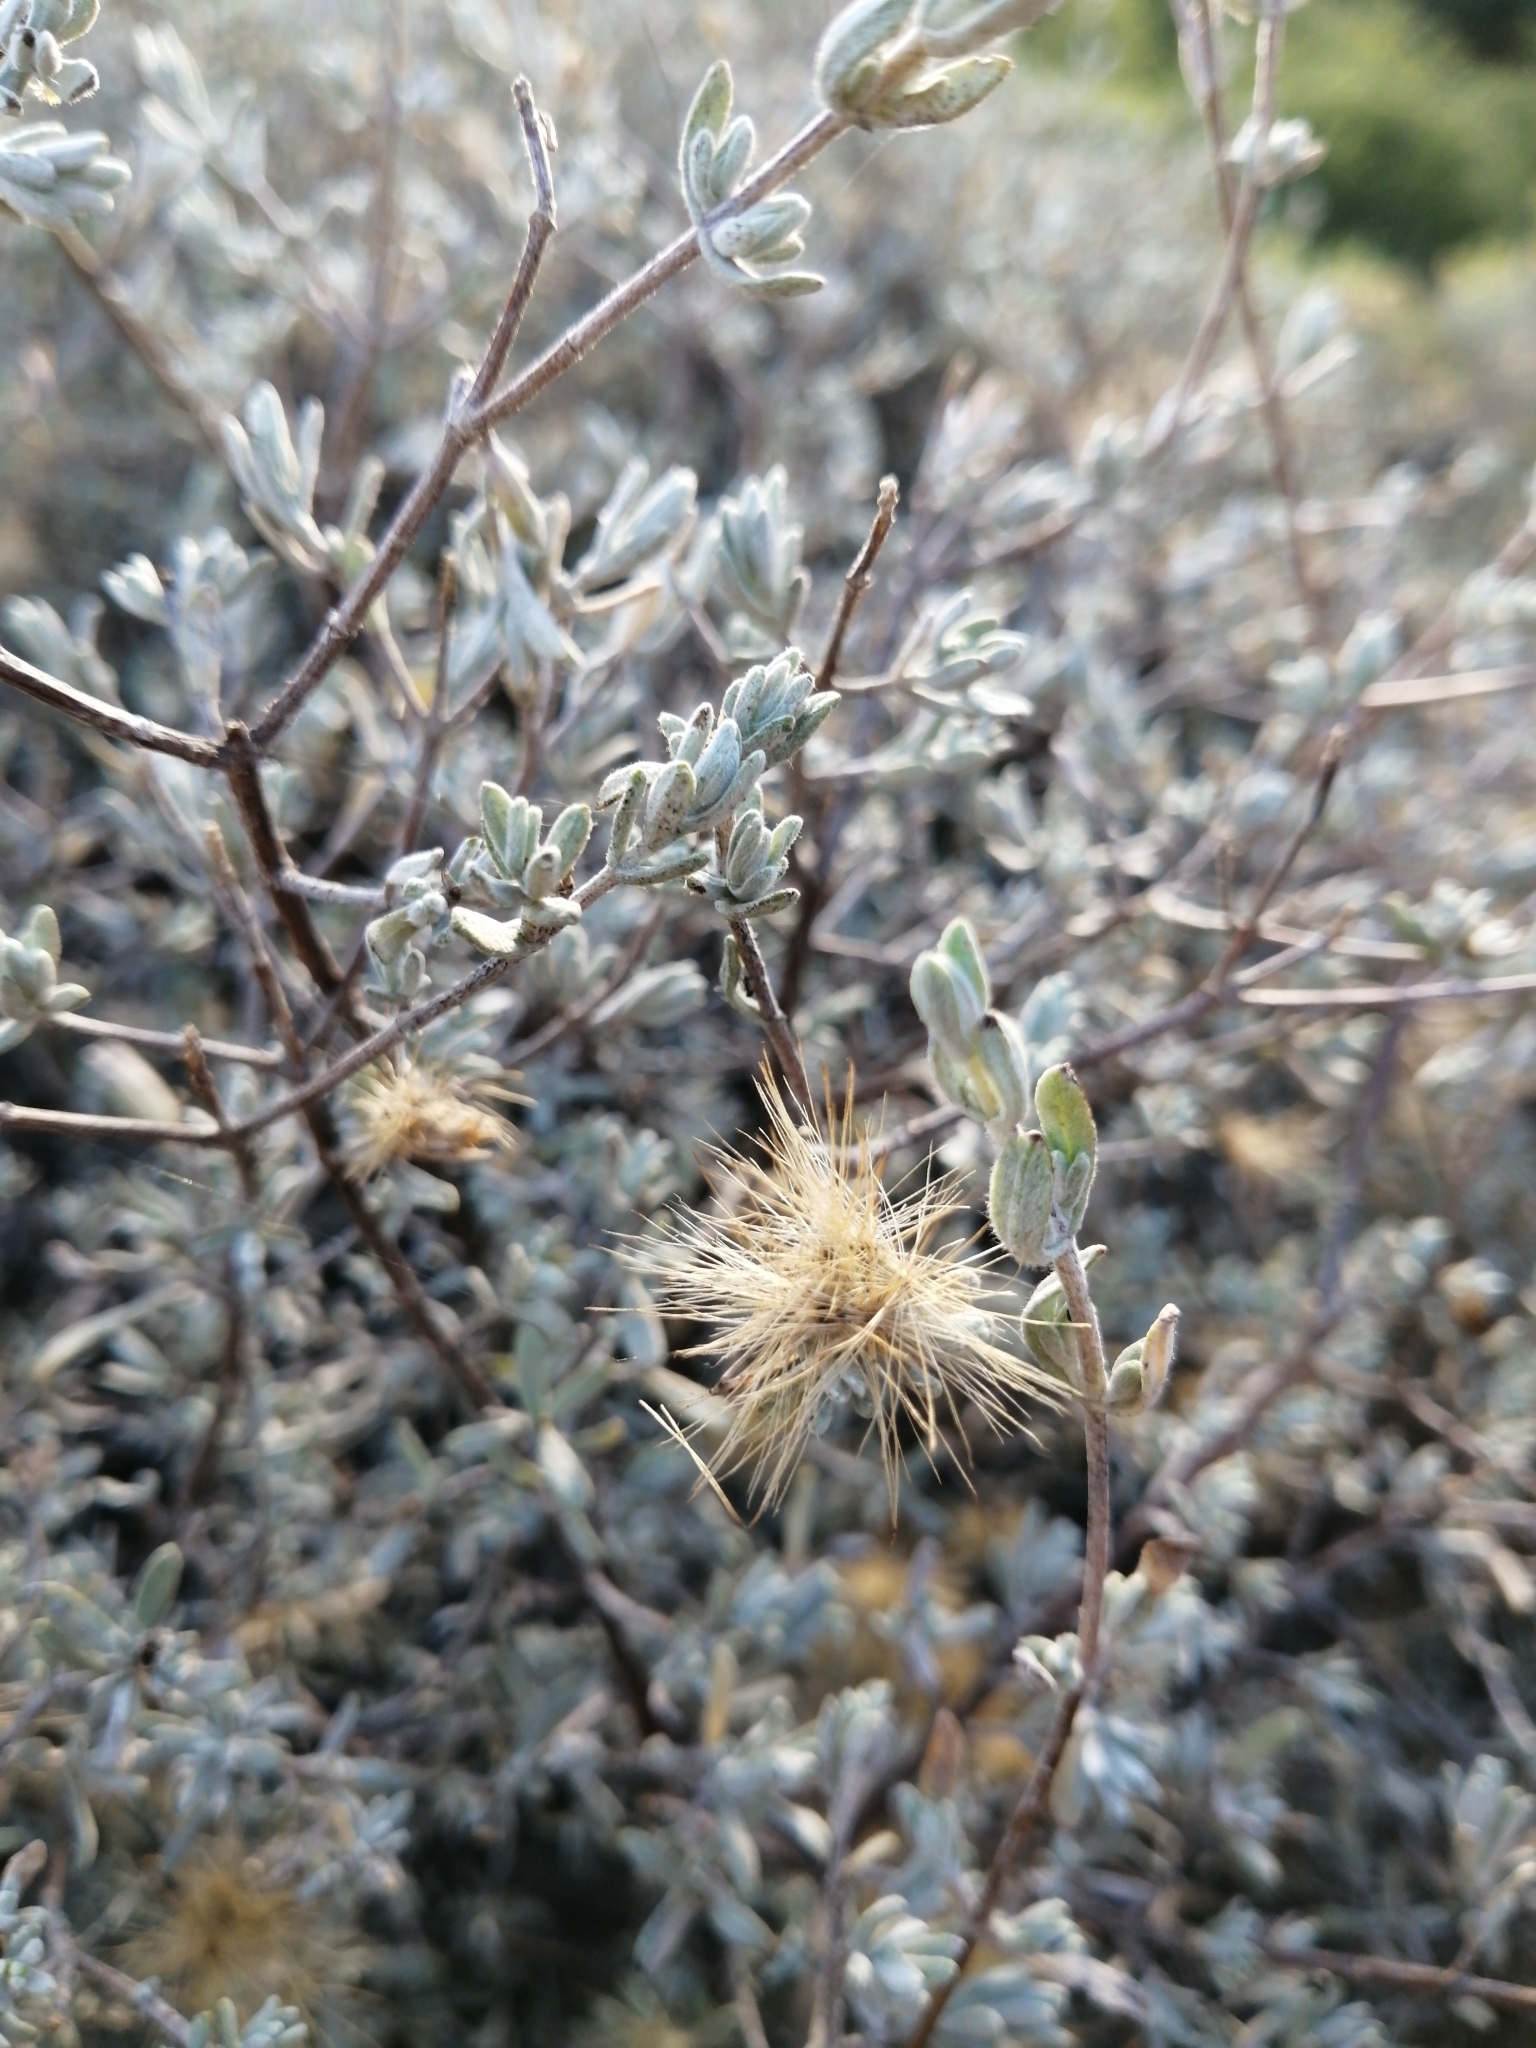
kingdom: Plantae
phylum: Tracheophyta
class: Magnoliopsida
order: Asterales
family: Asteraceae
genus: Pteronia
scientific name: Pteronia incana
